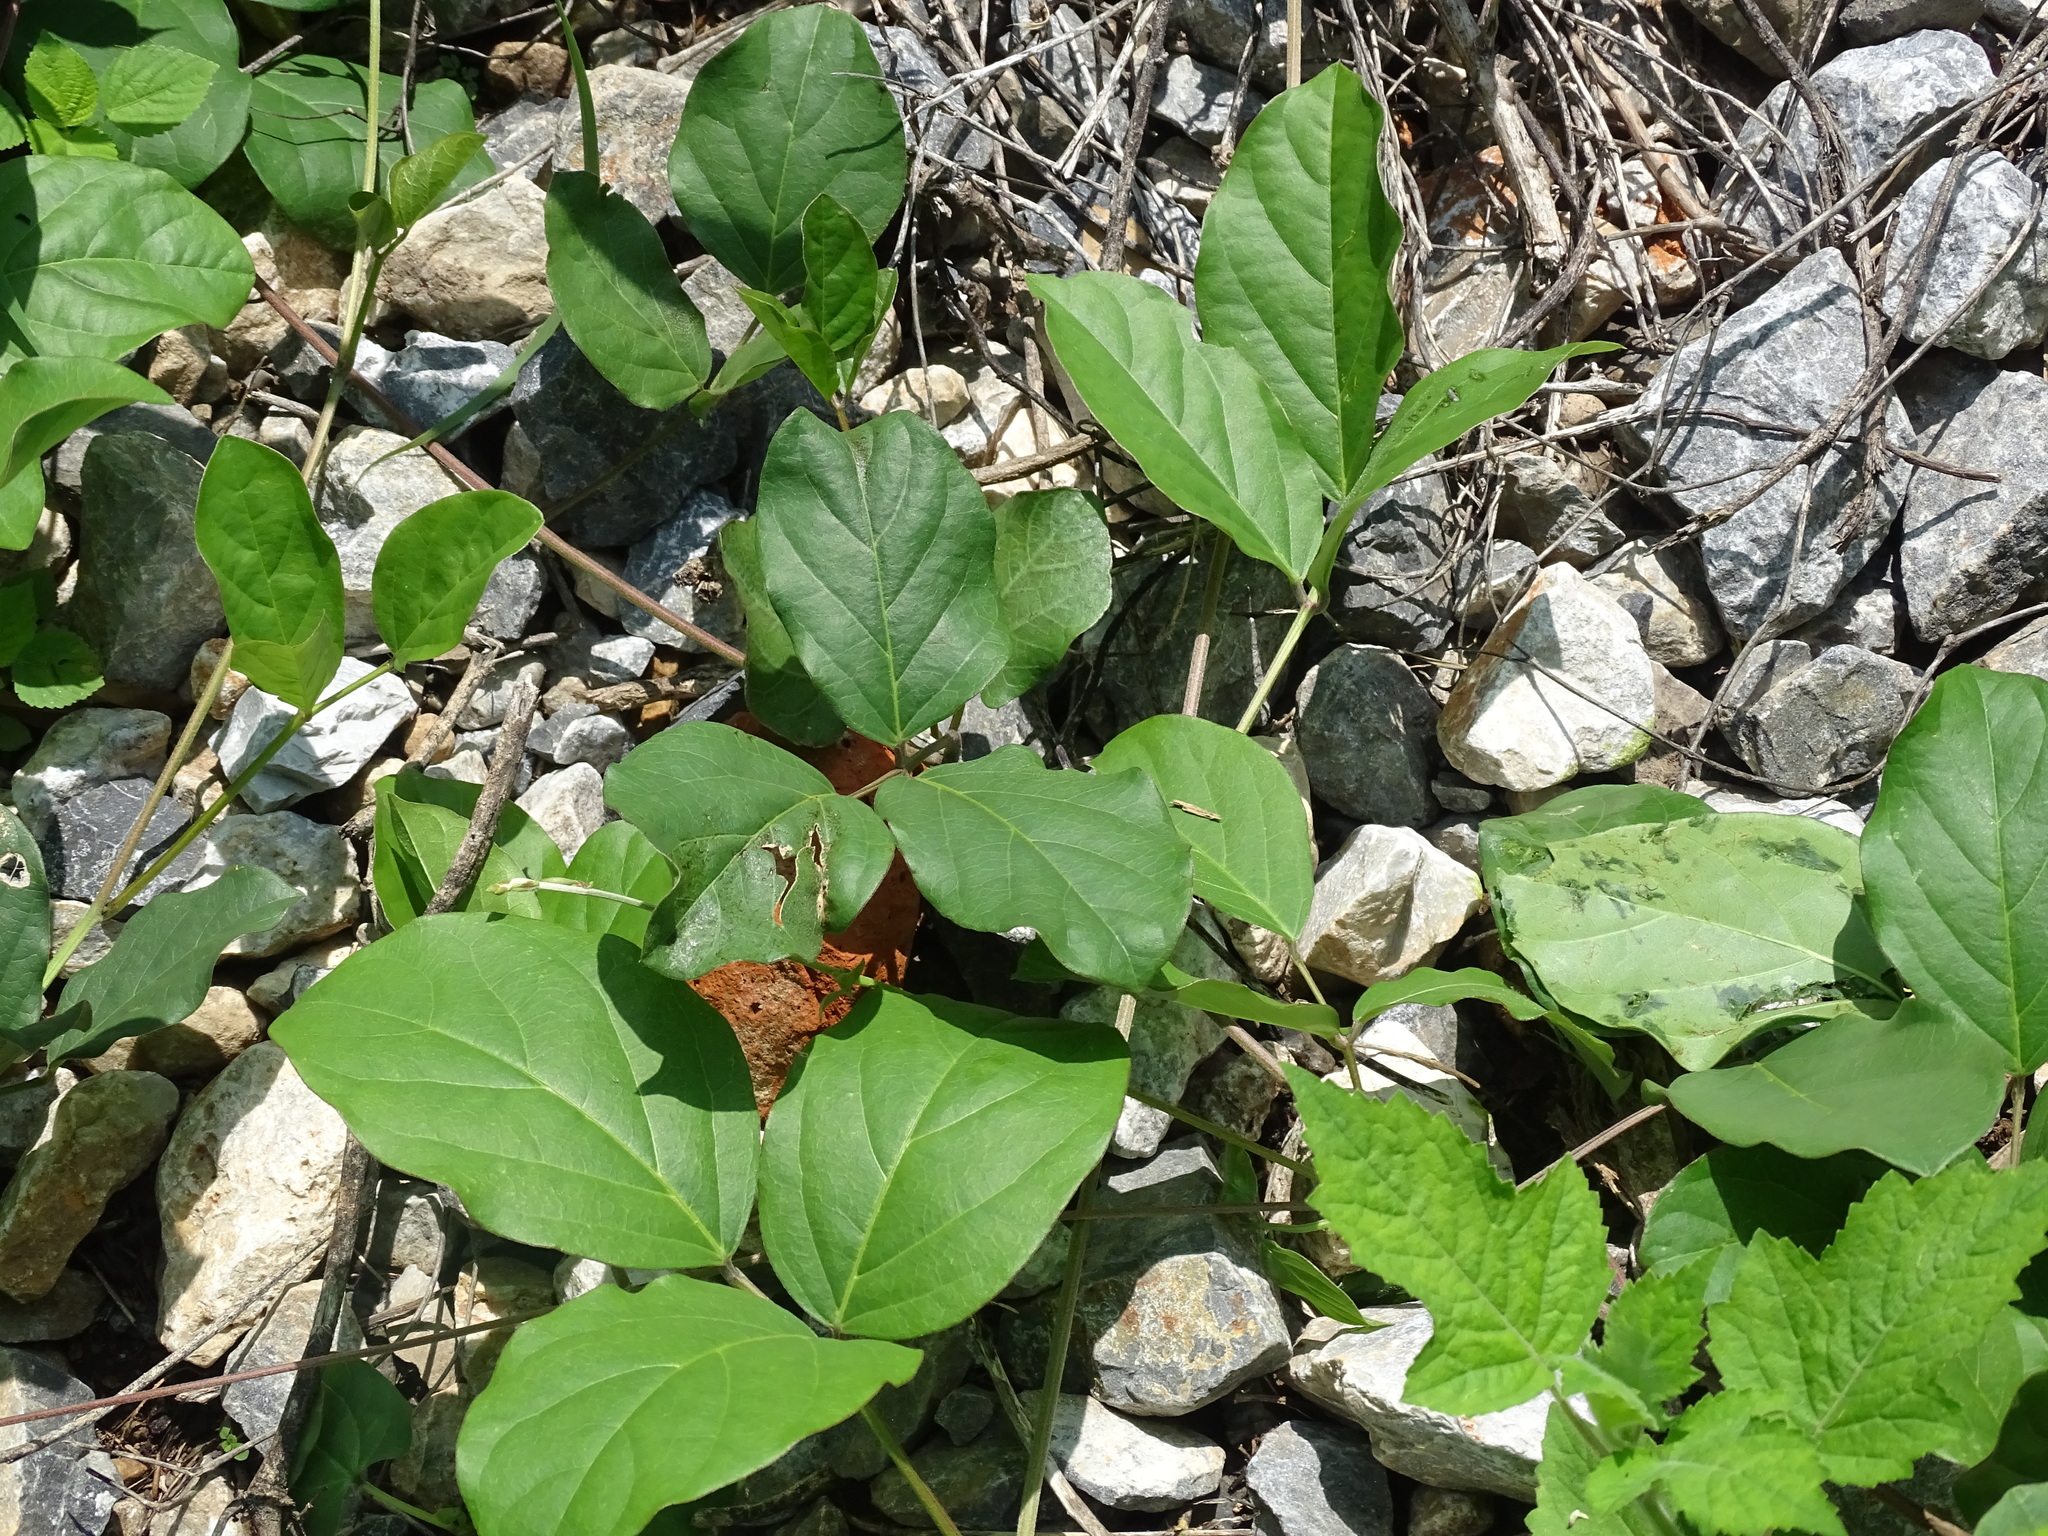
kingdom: Plantae
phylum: Tracheophyta
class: Magnoliopsida
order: Fabales
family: Fabaceae
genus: Canavalia
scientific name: Canavalia brasiliensis
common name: Barbicou-bean
